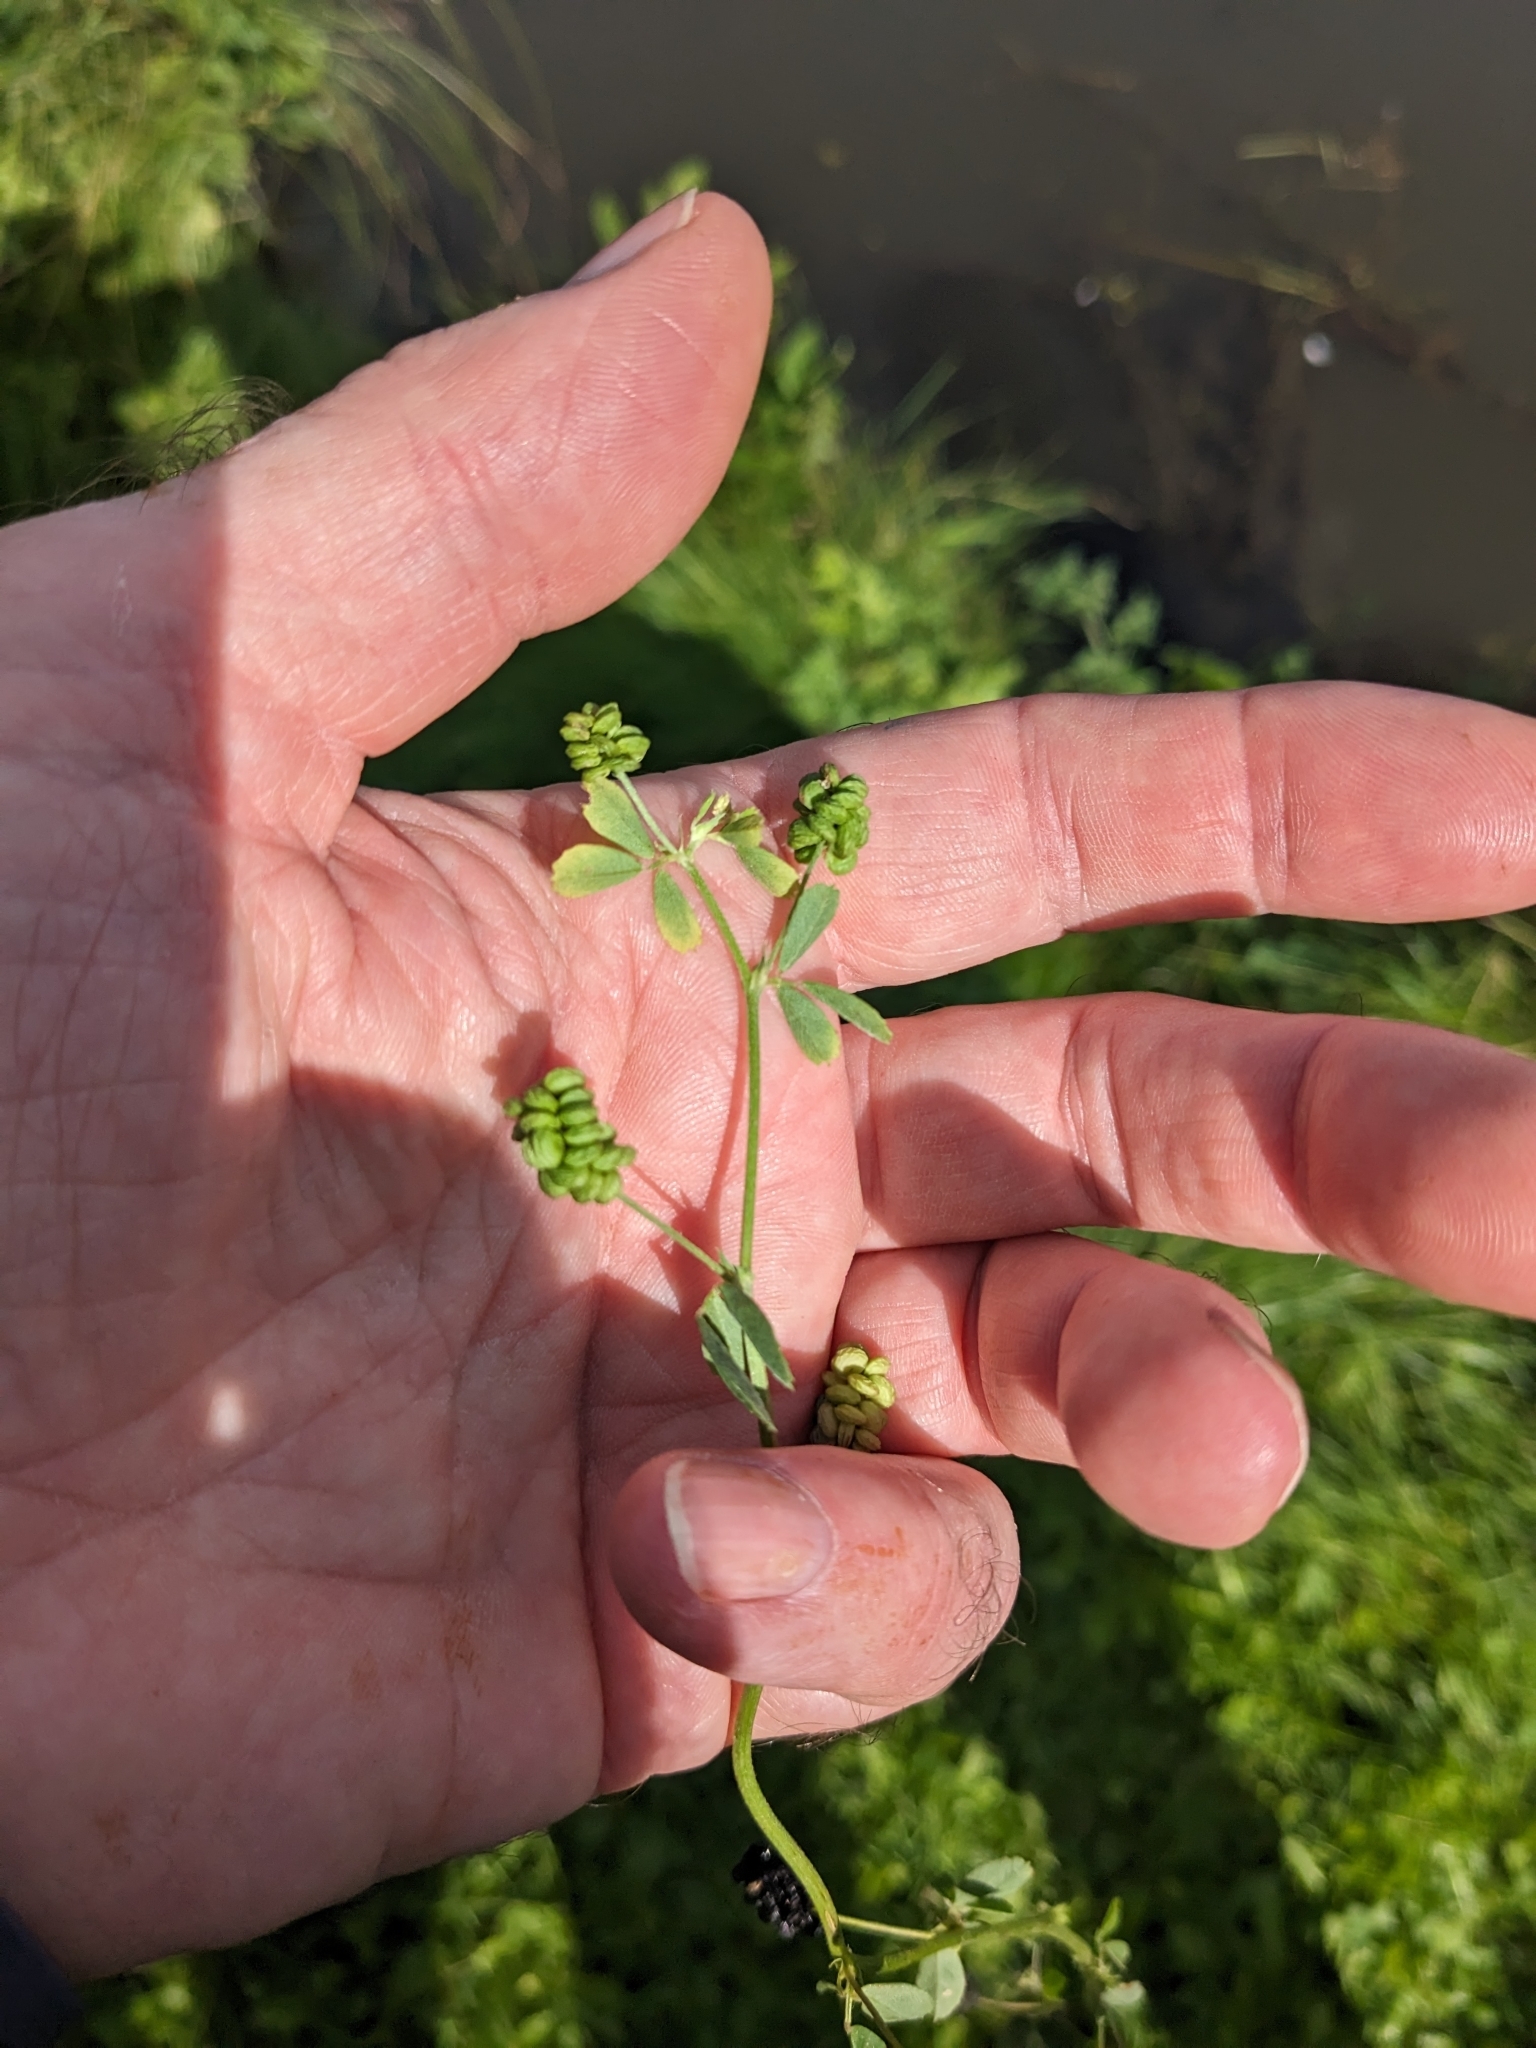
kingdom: Plantae
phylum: Tracheophyta
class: Magnoliopsida
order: Fabales
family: Fabaceae
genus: Medicago
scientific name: Medicago lupulina
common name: Black medick
